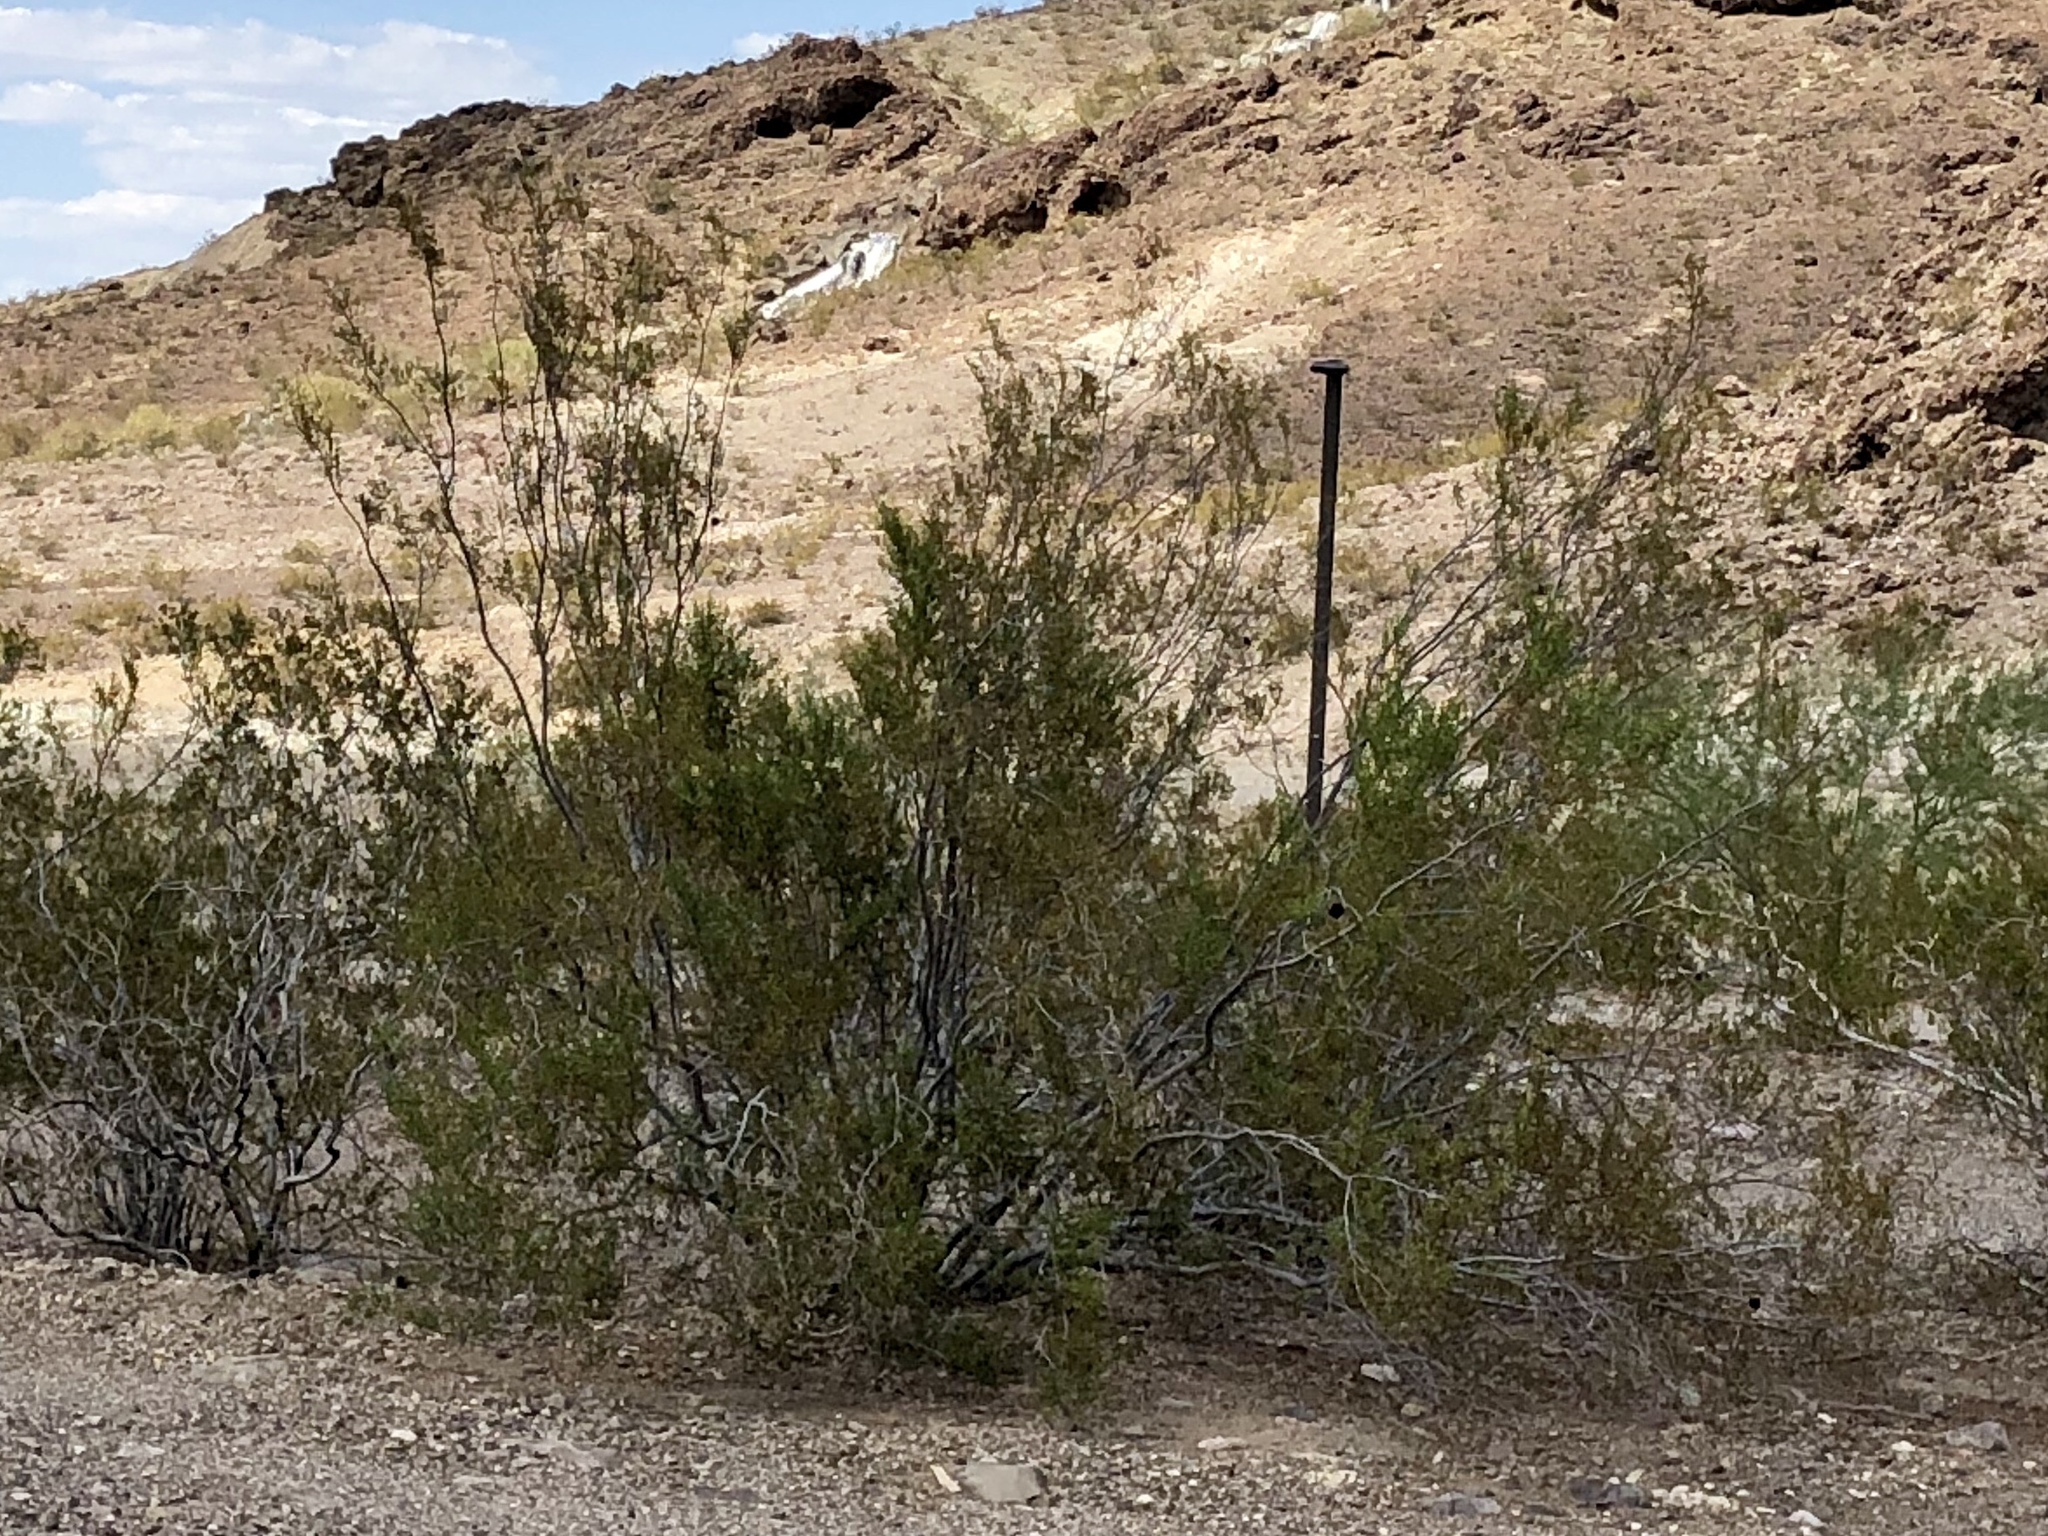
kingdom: Plantae
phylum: Tracheophyta
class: Magnoliopsida
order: Zygophyllales
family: Zygophyllaceae
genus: Larrea
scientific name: Larrea tridentata
